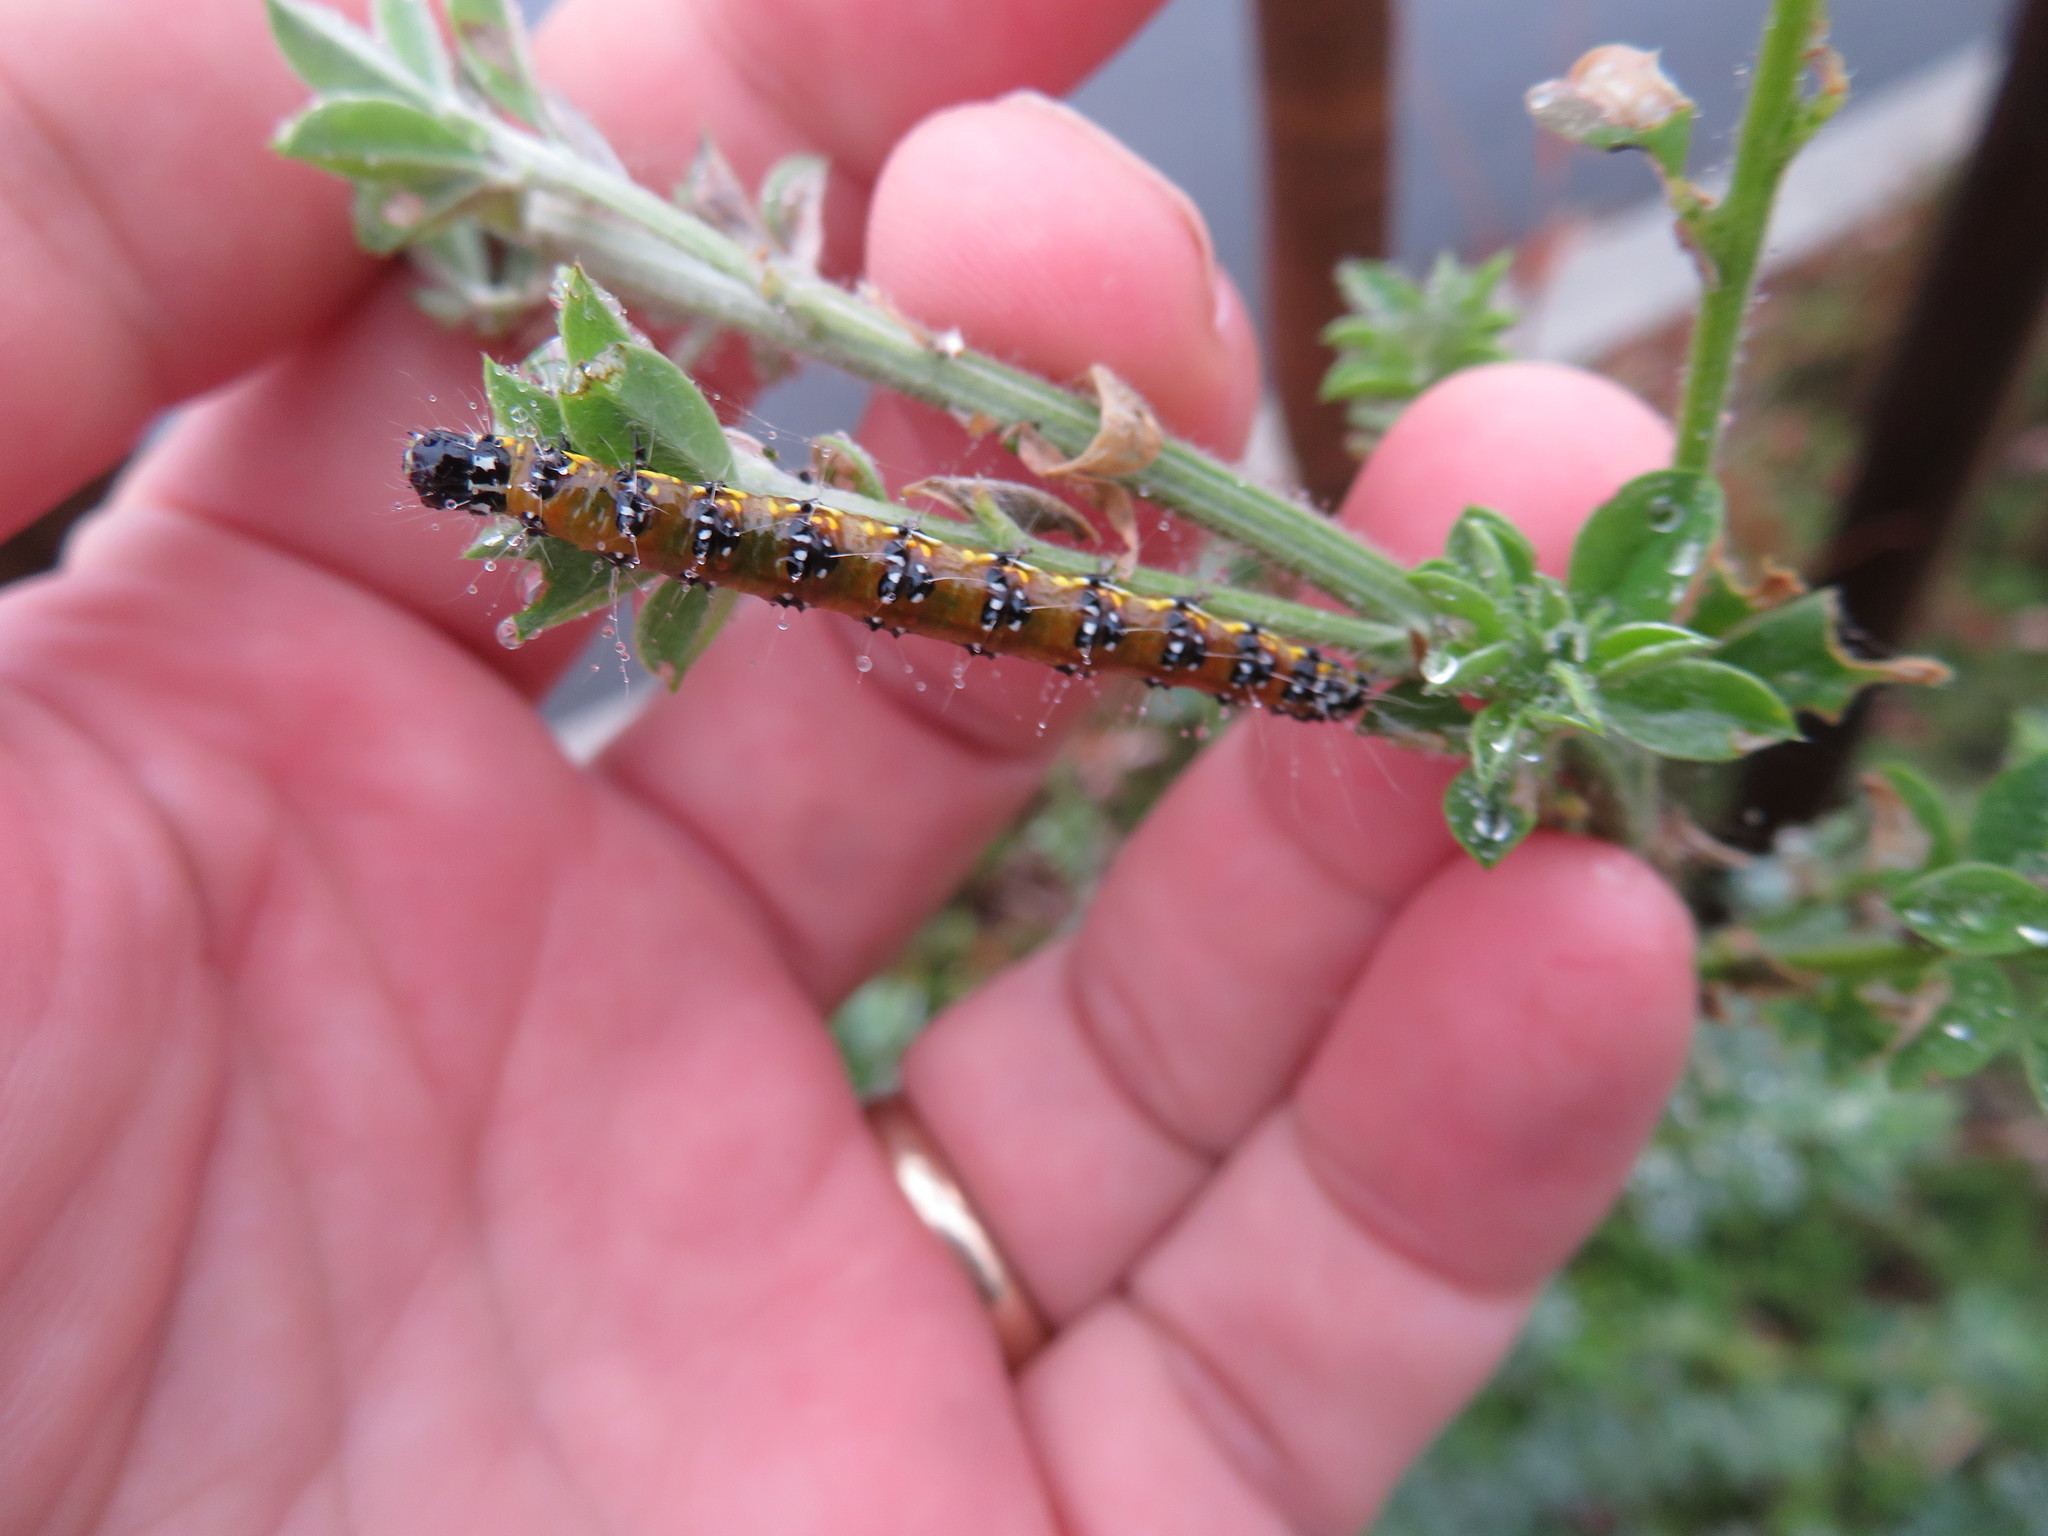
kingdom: Animalia
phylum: Arthropoda
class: Insecta
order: Lepidoptera
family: Crambidae
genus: Uresiphita
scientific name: Uresiphita reversalis
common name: Genista broom moth
